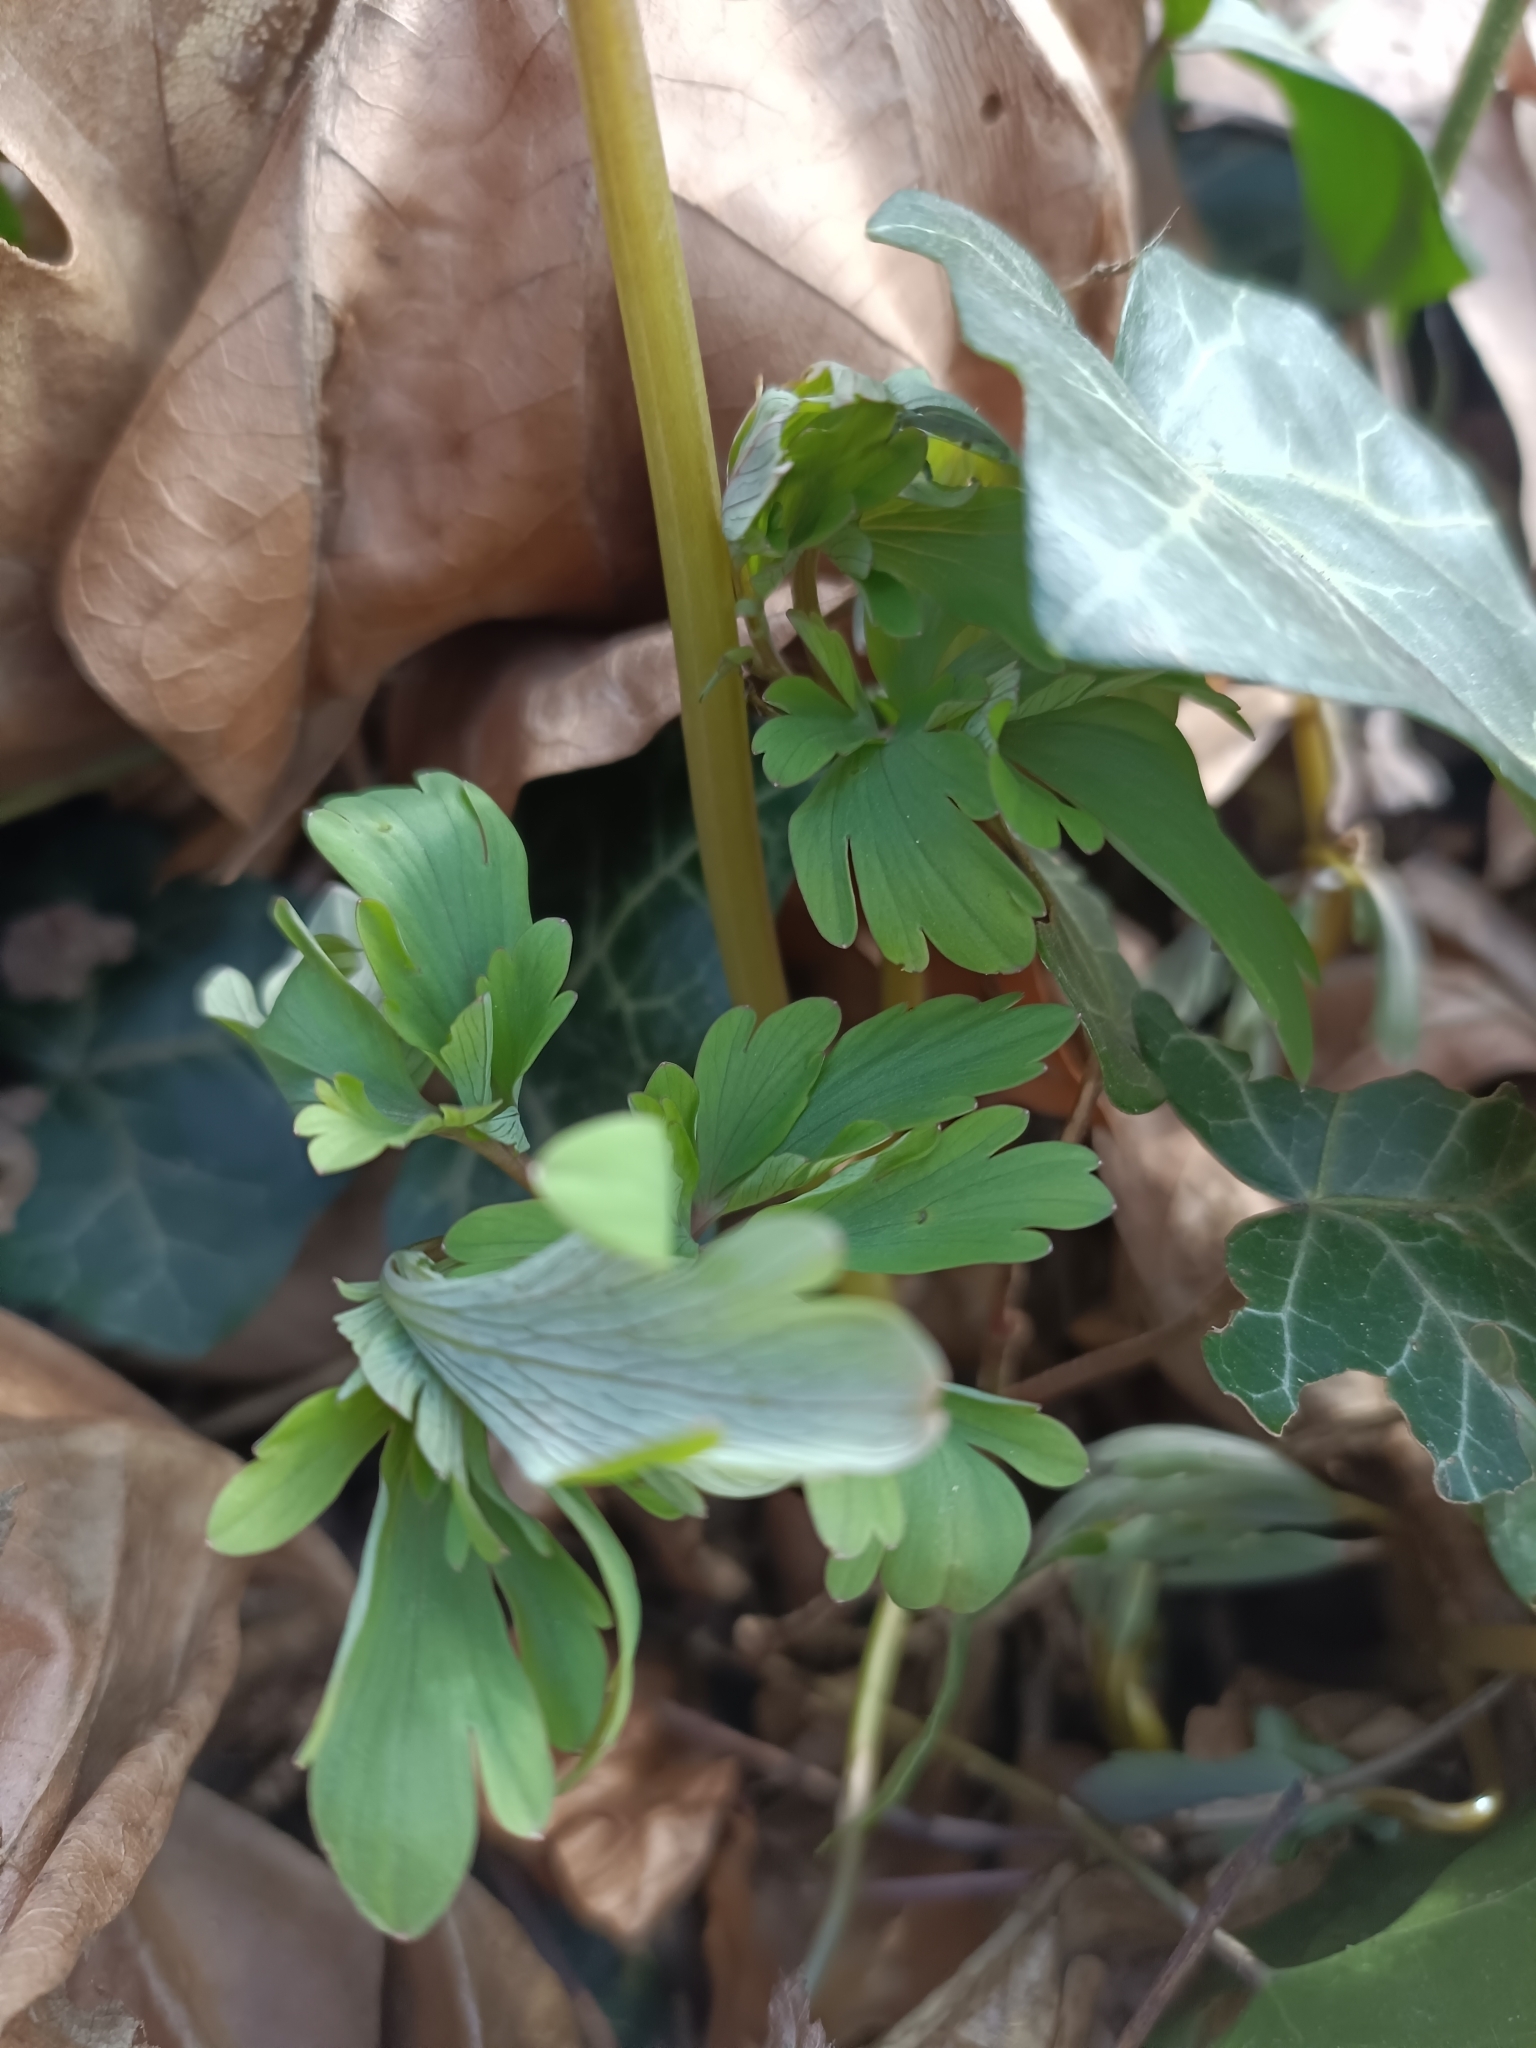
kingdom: Plantae
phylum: Tracheophyta
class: Magnoliopsida
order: Ranunculales
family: Papaveraceae
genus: Corydalis
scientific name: Corydalis cava
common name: Hollowroot
